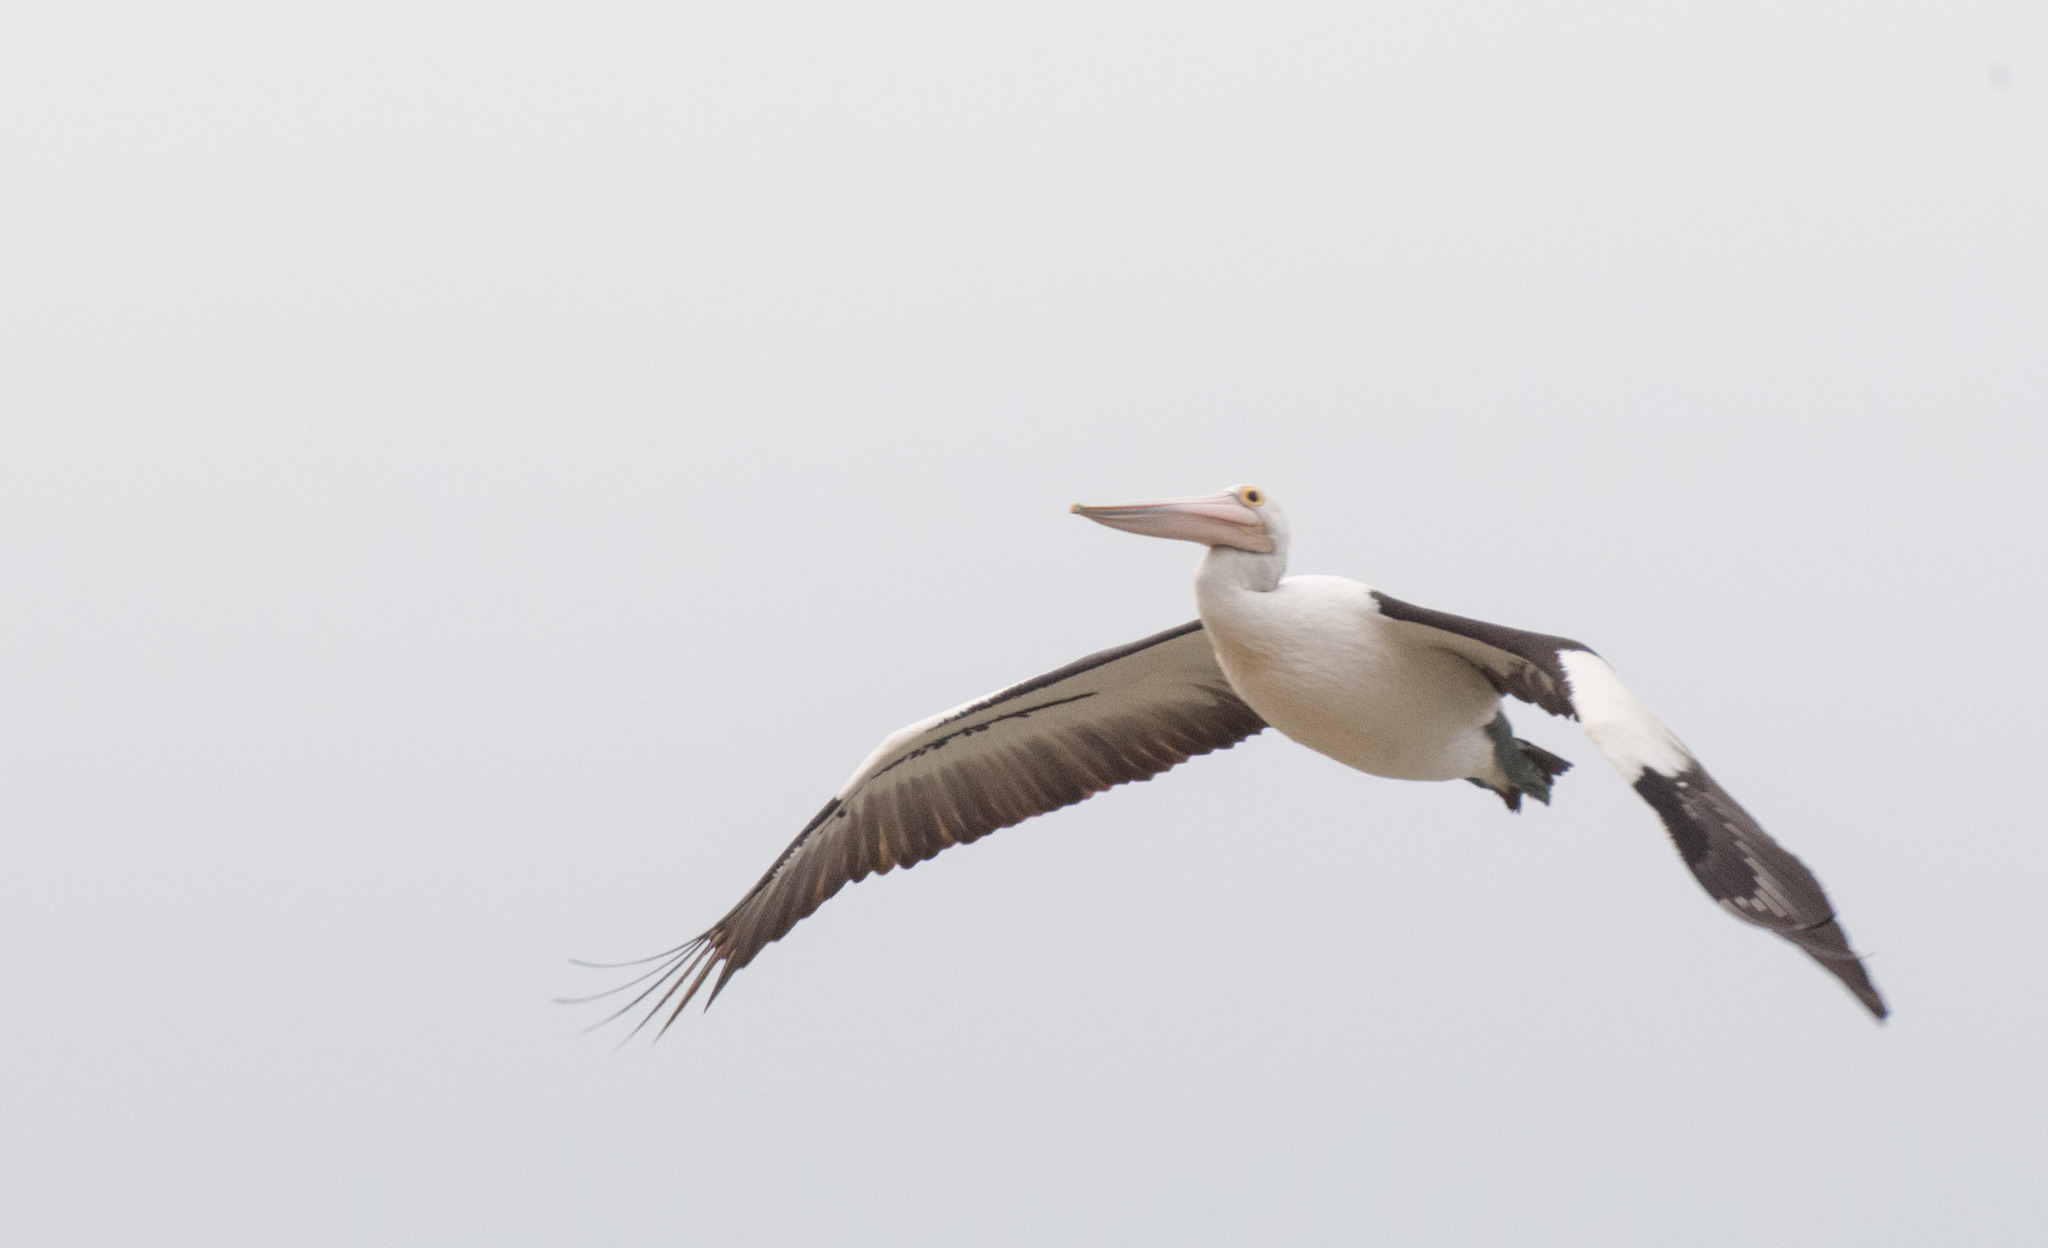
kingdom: Animalia
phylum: Chordata
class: Aves
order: Pelecaniformes
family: Pelecanidae
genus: Pelecanus
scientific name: Pelecanus conspicillatus
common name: Australian pelican
